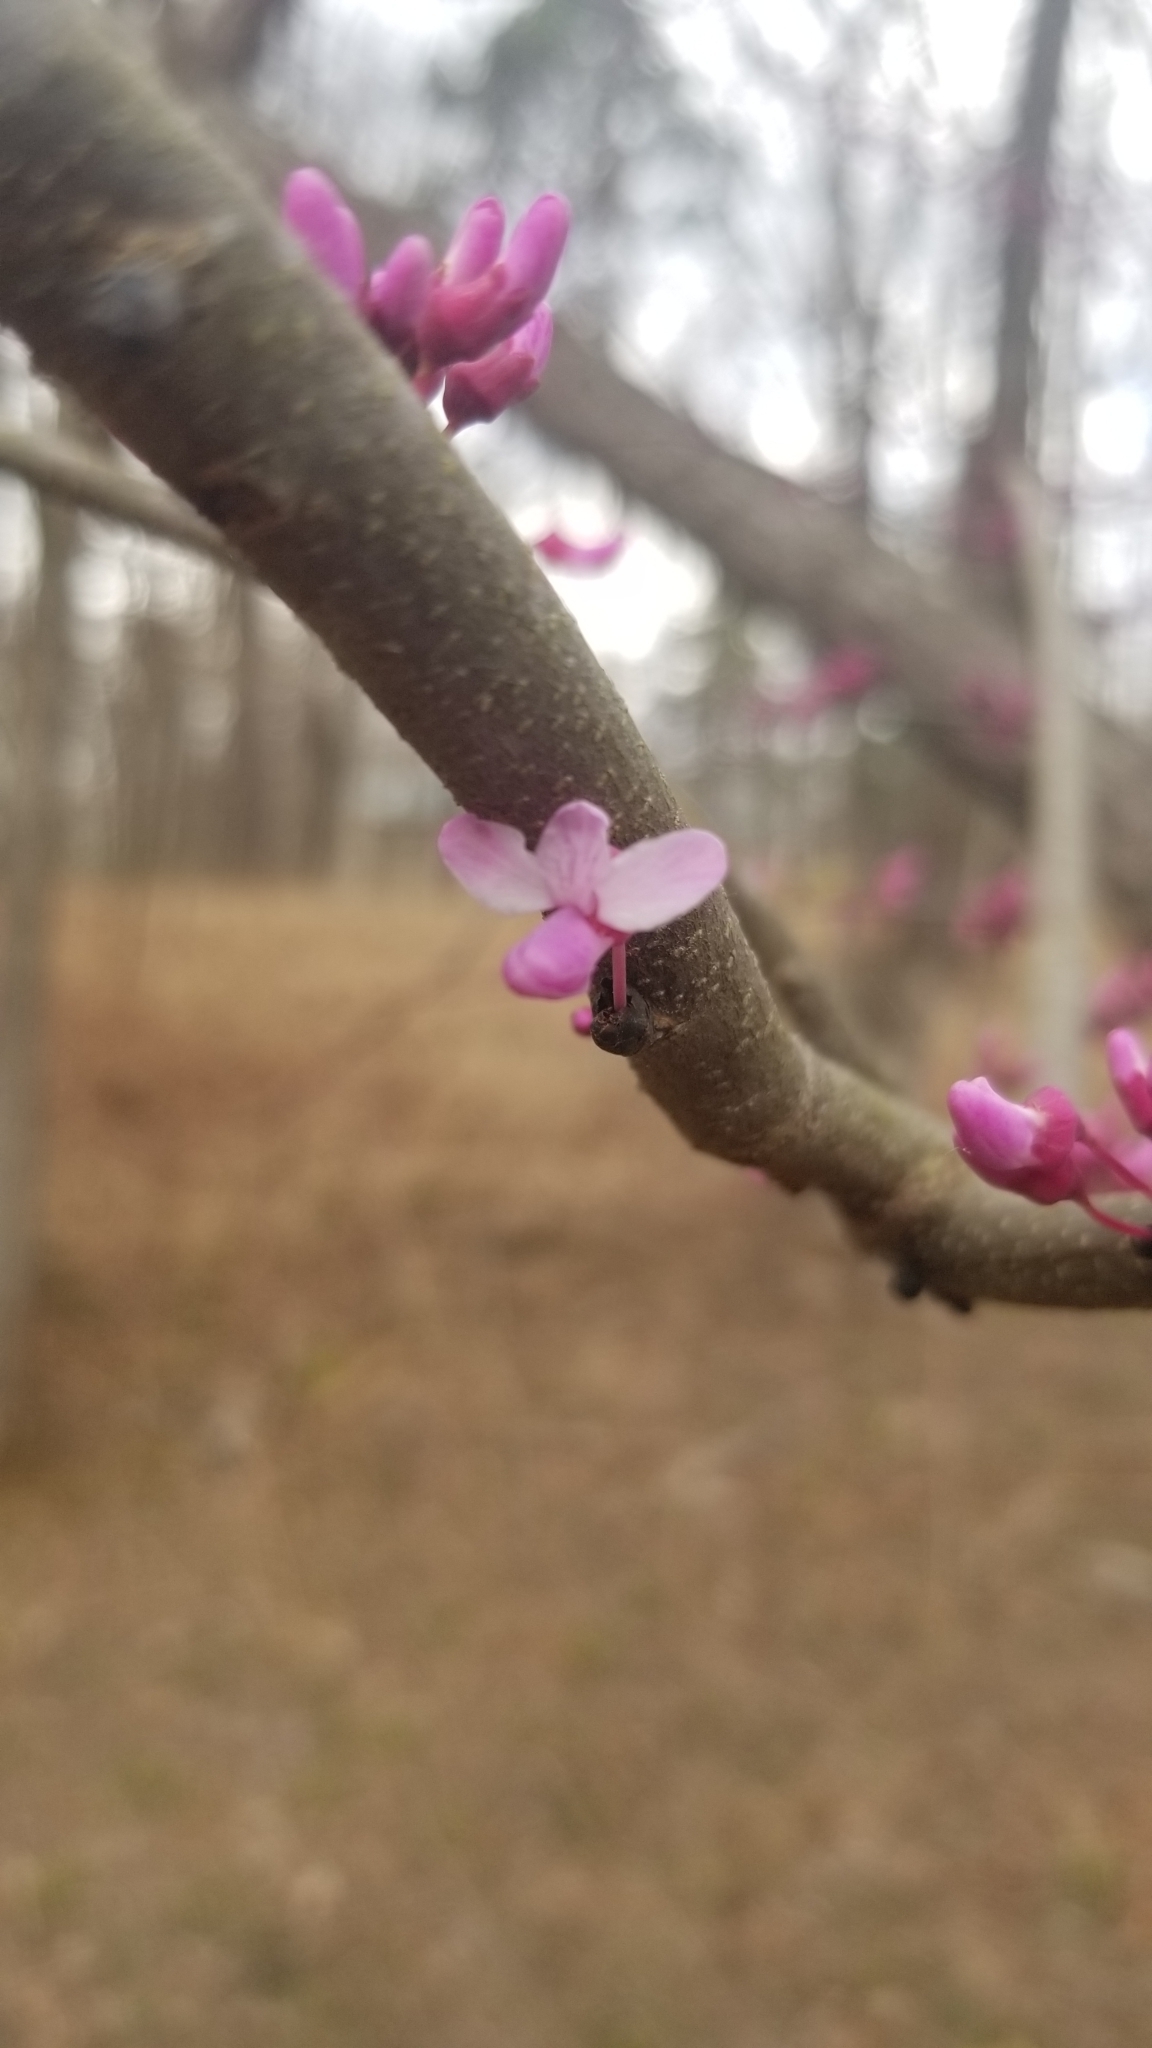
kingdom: Plantae
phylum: Tracheophyta
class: Magnoliopsida
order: Fabales
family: Fabaceae
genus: Cercis
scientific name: Cercis canadensis
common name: Eastern redbud
